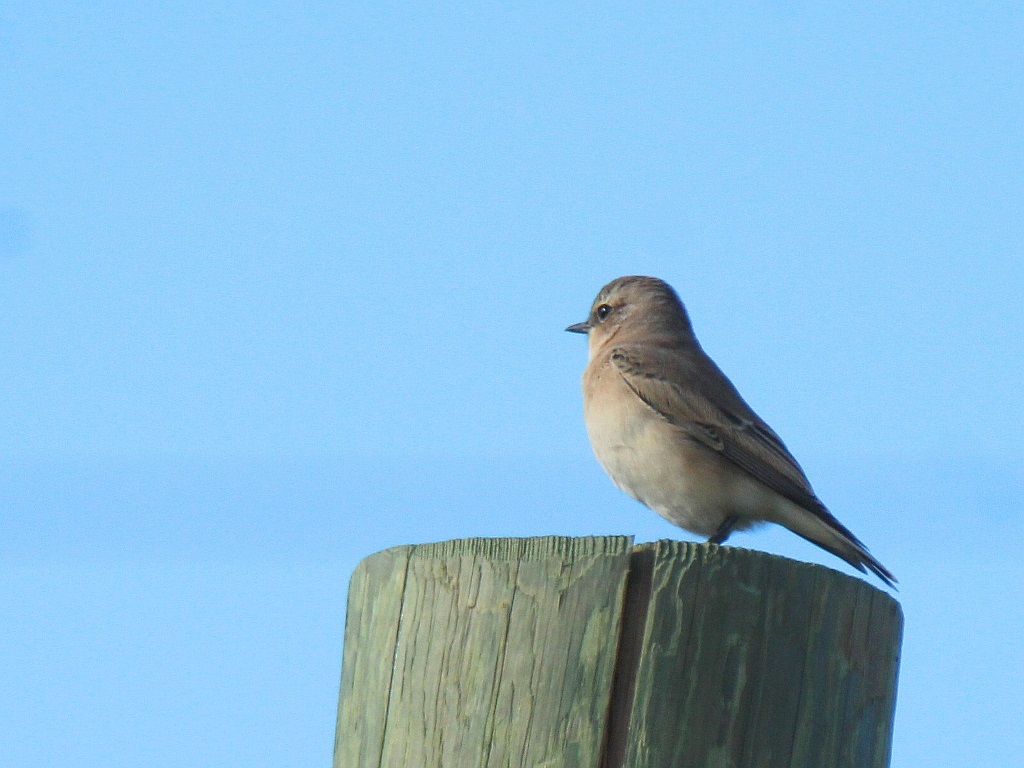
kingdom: Animalia
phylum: Chordata
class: Aves
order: Passeriformes
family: Muscicapidae
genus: Oenanthe
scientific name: Oenanthe oenanthe
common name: Northern wheatear
